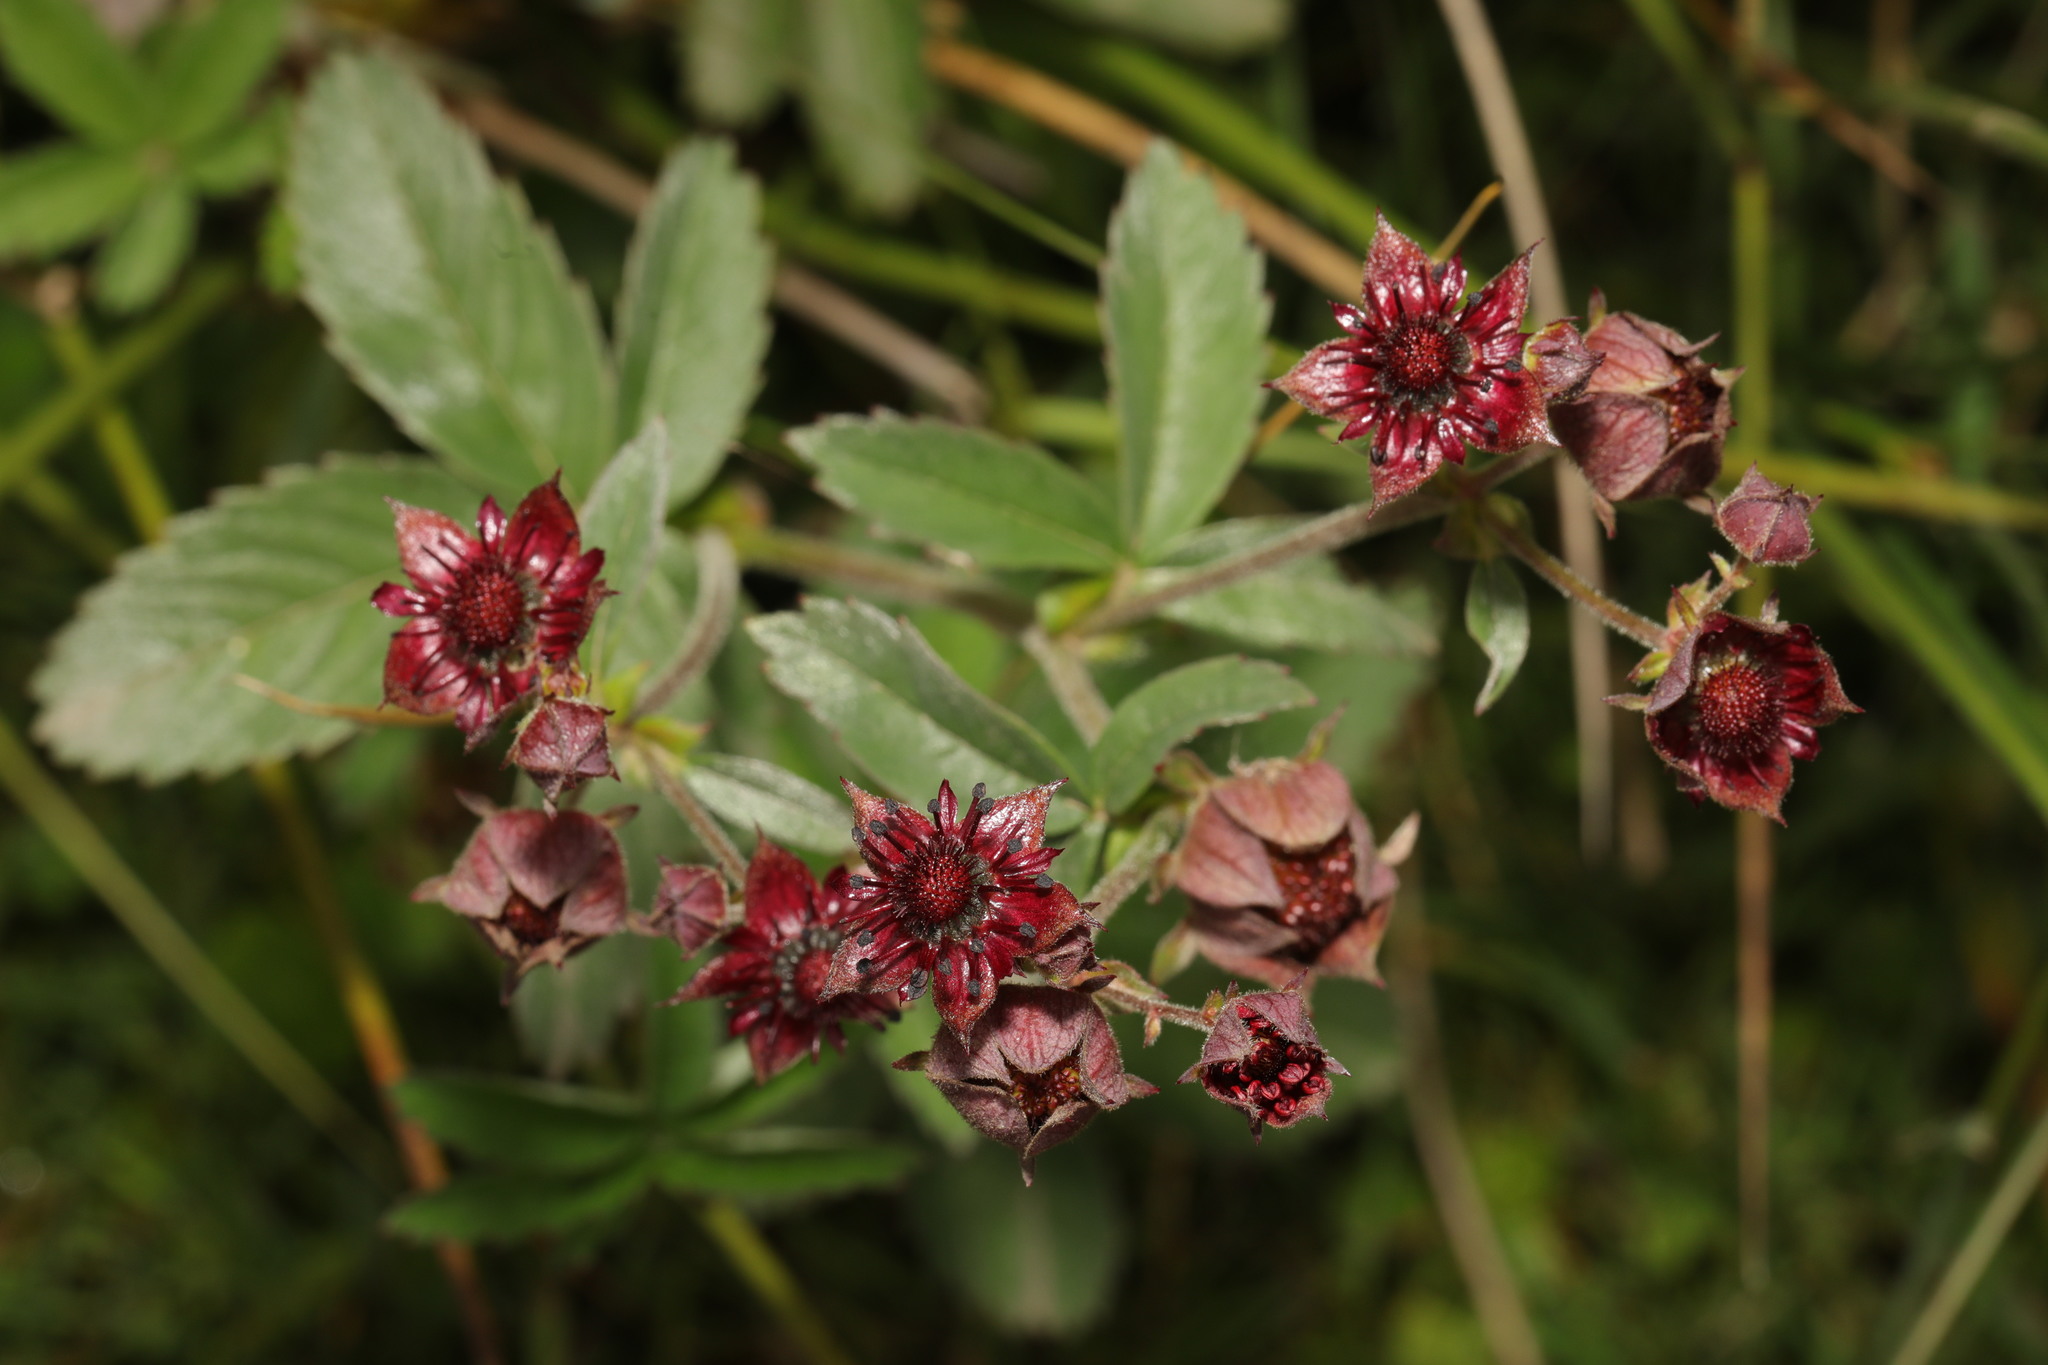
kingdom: Plantae
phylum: Tracheophyta
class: Magnoliopsida
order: Rosales
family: Rosaceae
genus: Comarum
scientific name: Comarum palustre
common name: Marsh cinquefoil
